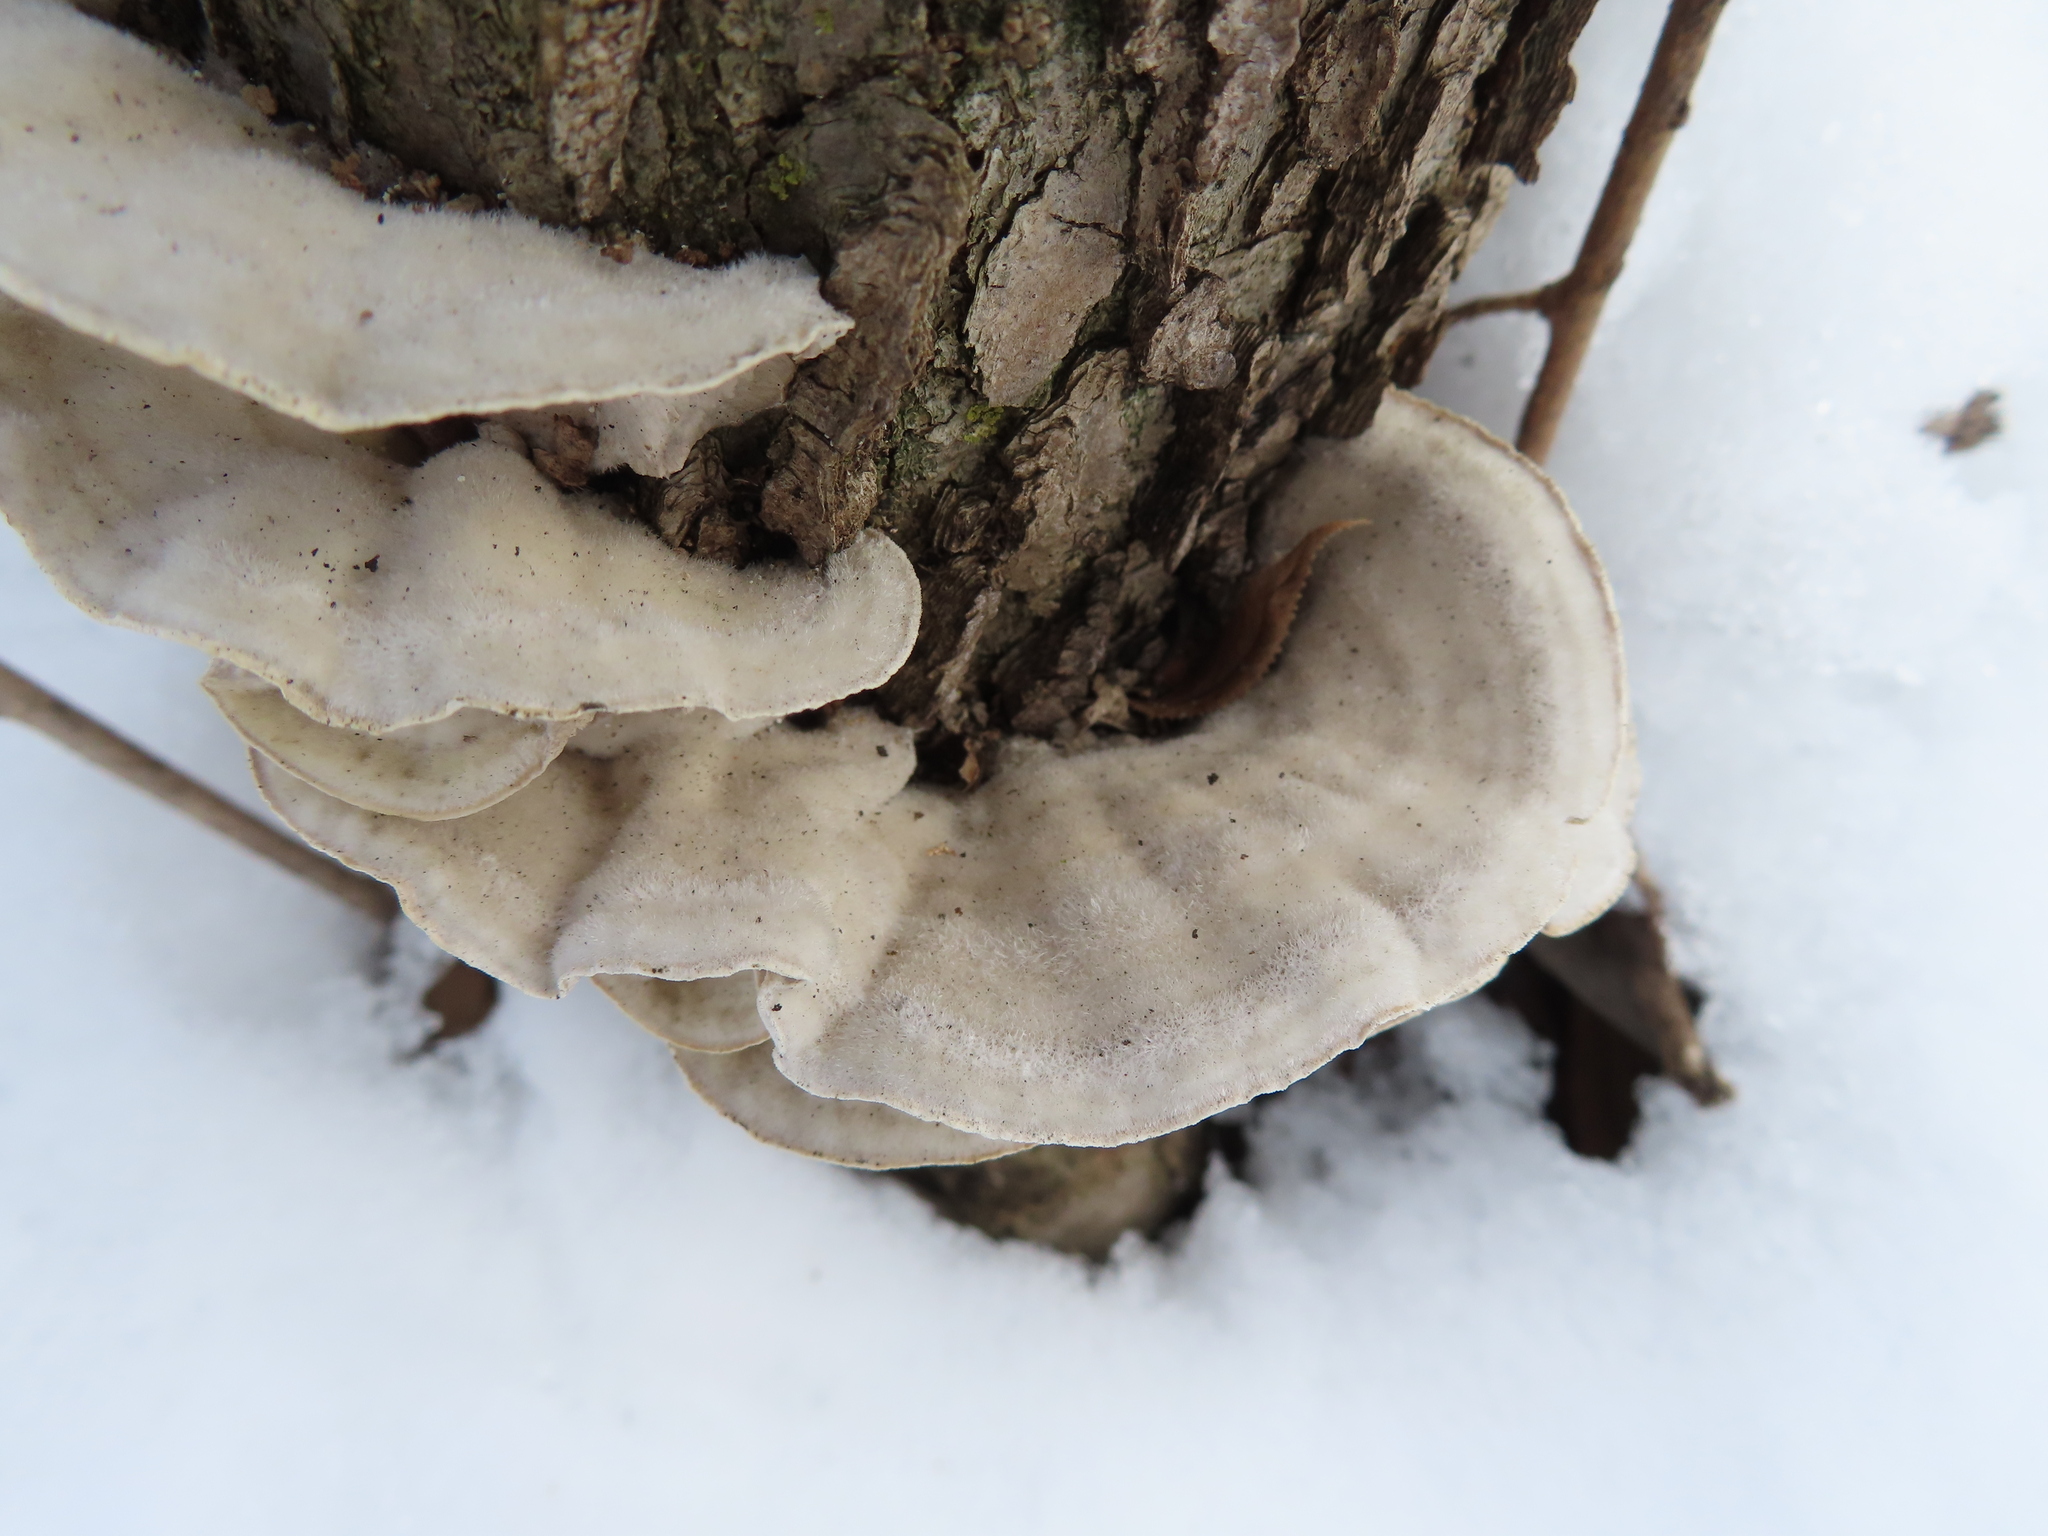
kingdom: Fungi
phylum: Basidiomycota
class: Agaricomycetes
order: Polyporales
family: Cerrenaceae
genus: Cerrena
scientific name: Cerrena unicolor
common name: Mossy maze polypore
